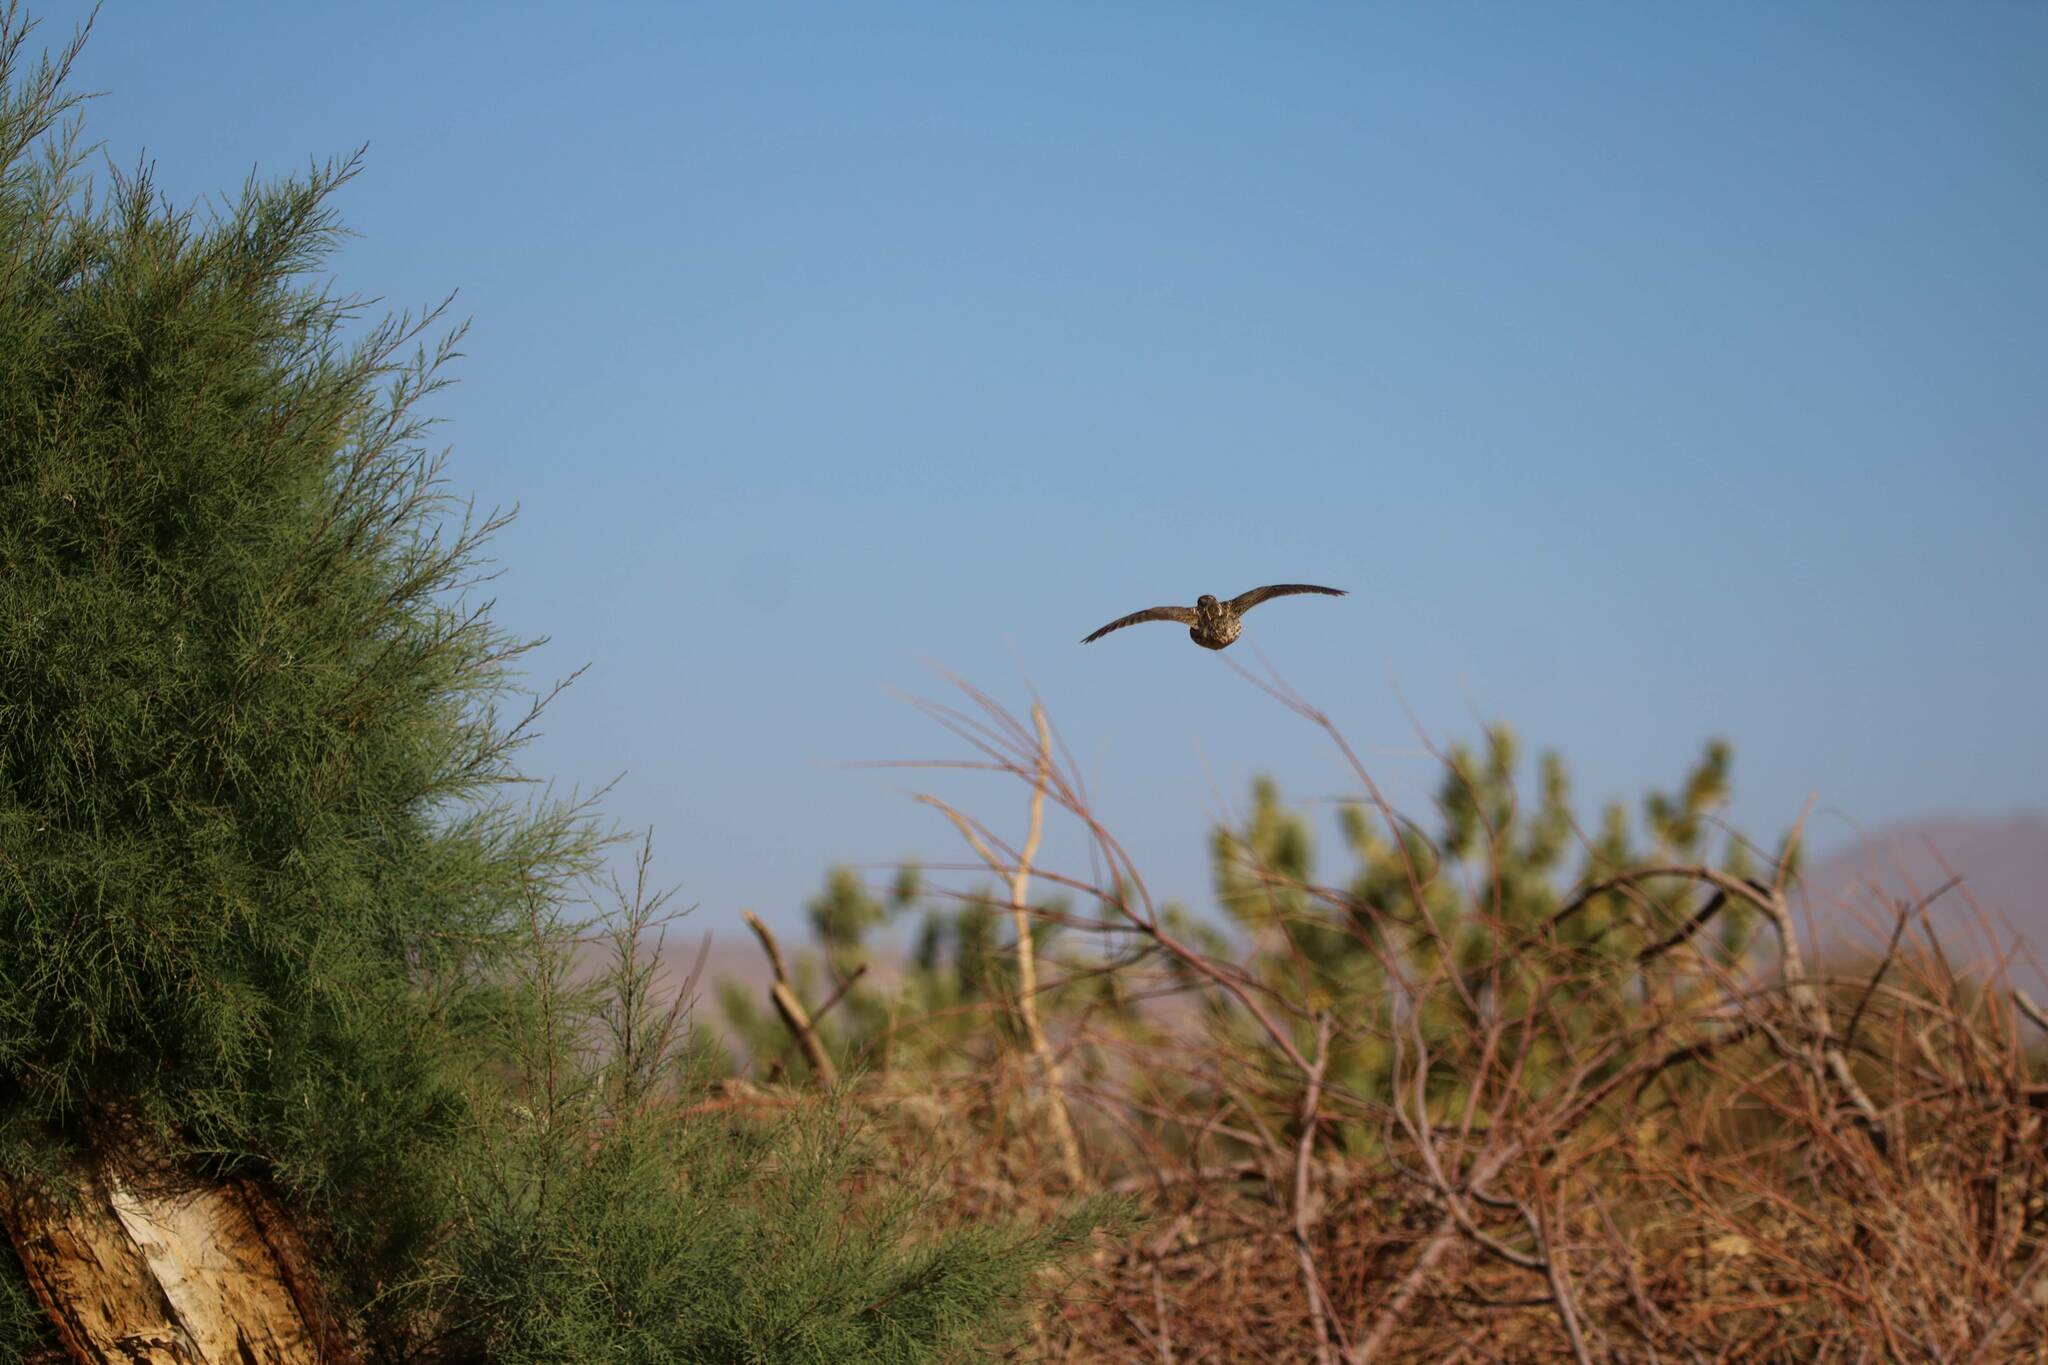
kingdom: Animalia
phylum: Chordata
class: Aves
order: Galliformes
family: Phasianidae
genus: Coturnix
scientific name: Coturnix coturnix
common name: Common quail
